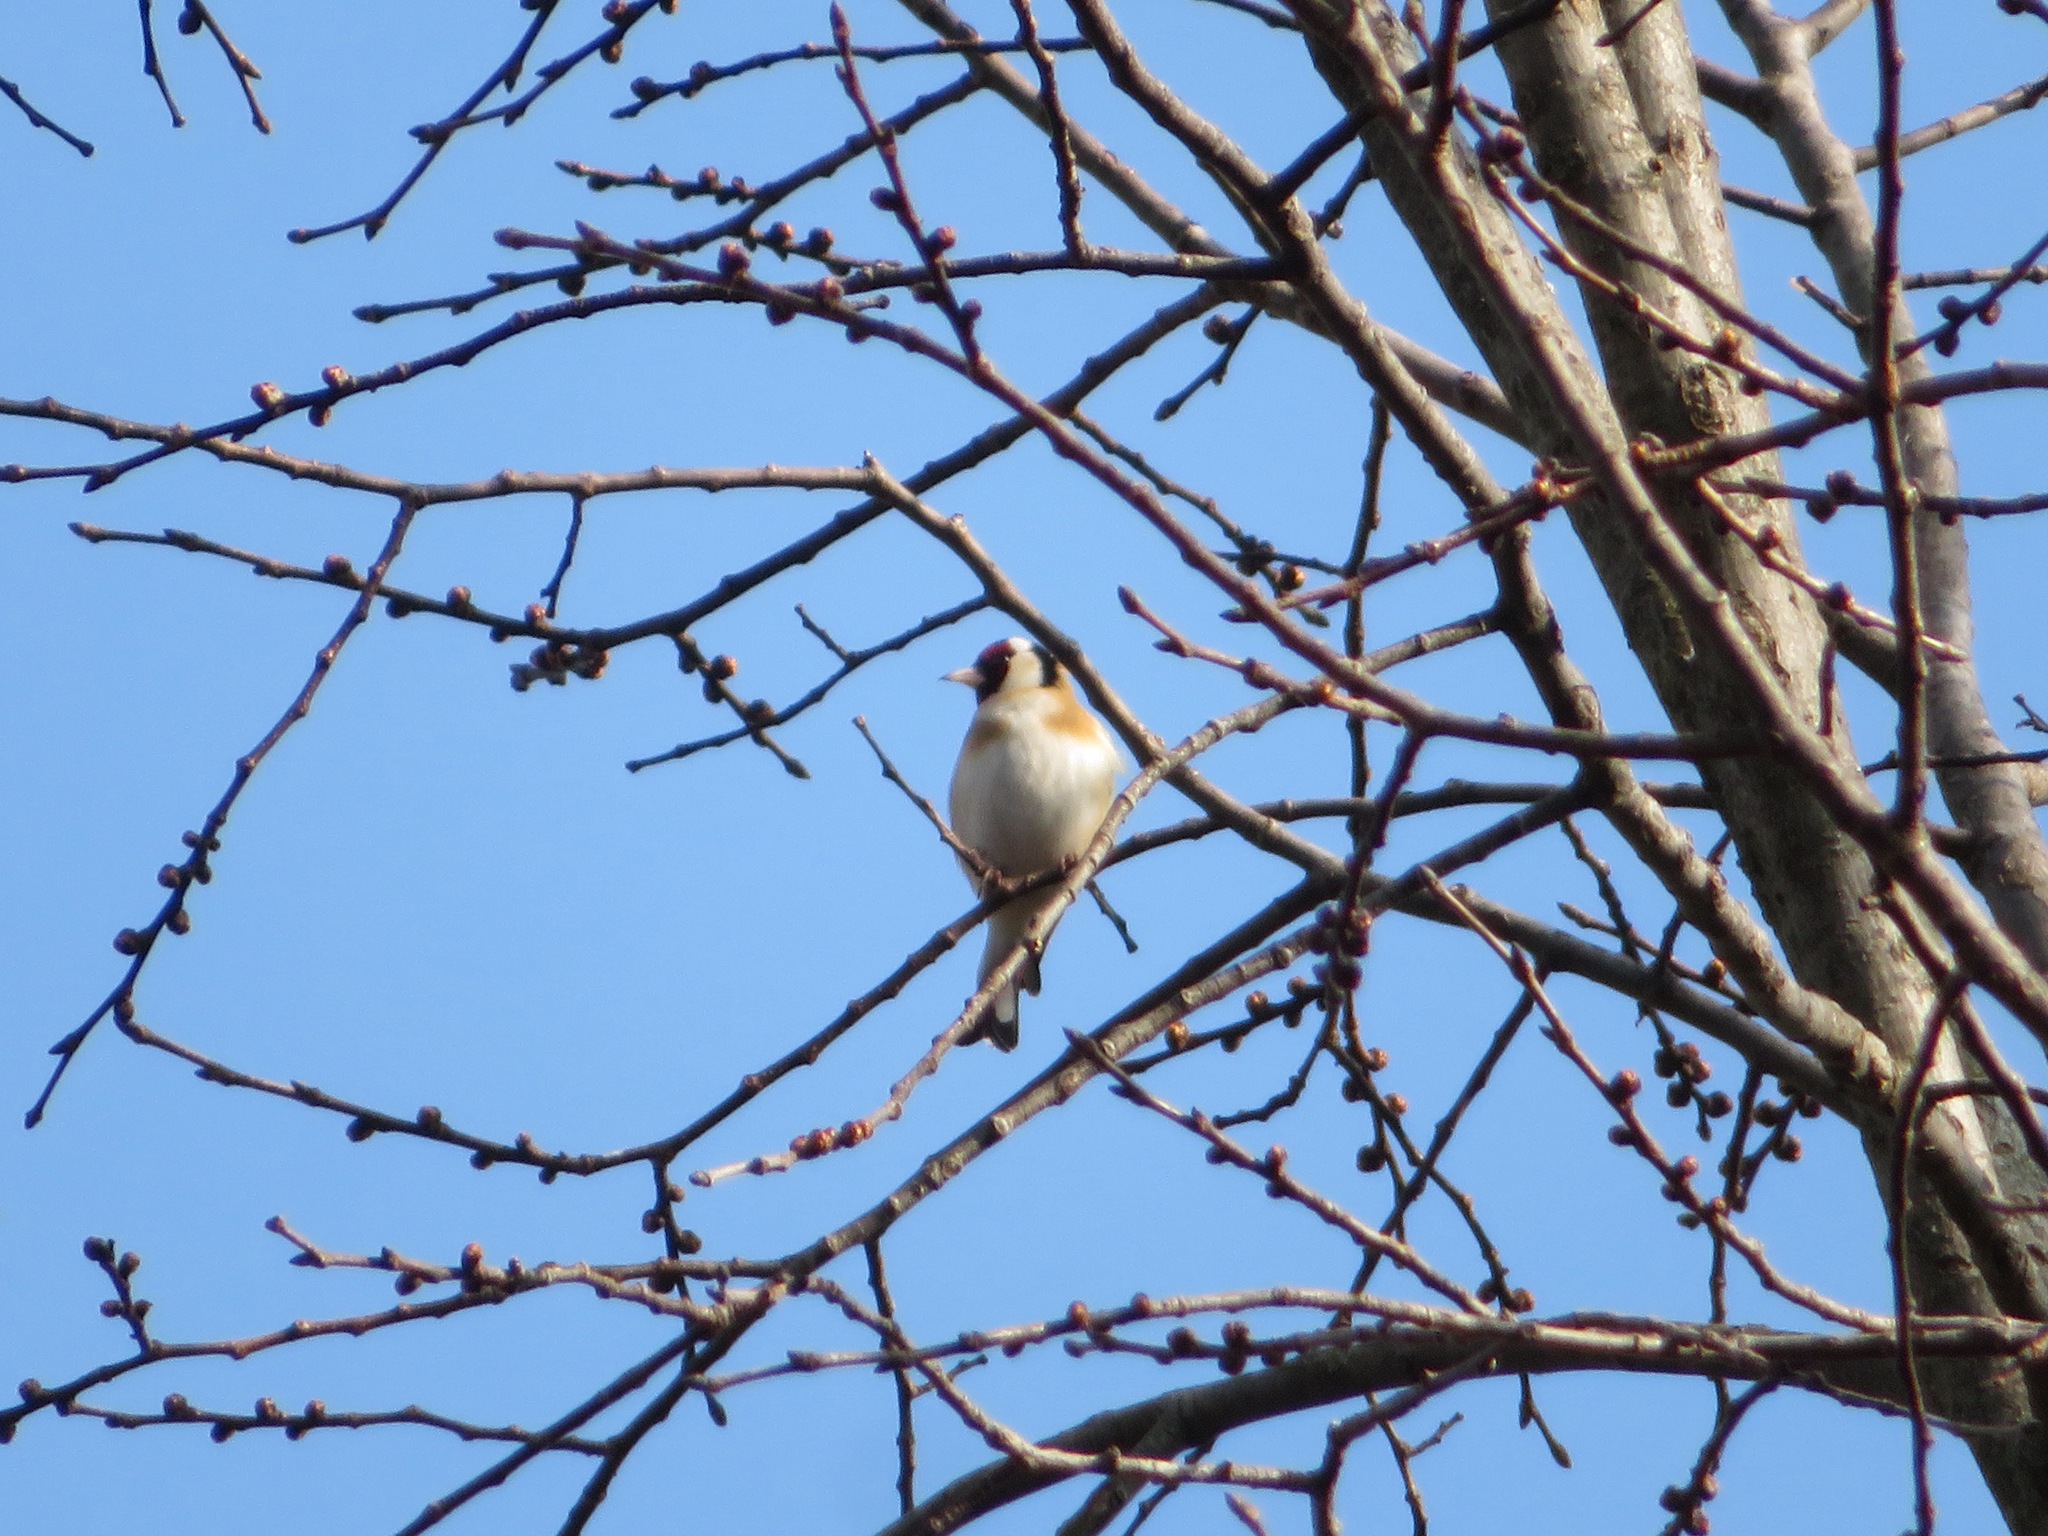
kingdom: Animalia
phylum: Chordata
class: Aves
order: Passeriformes
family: Fringillidae
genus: Carduelis
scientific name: Carduelis carduelis
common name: European goldfinch
